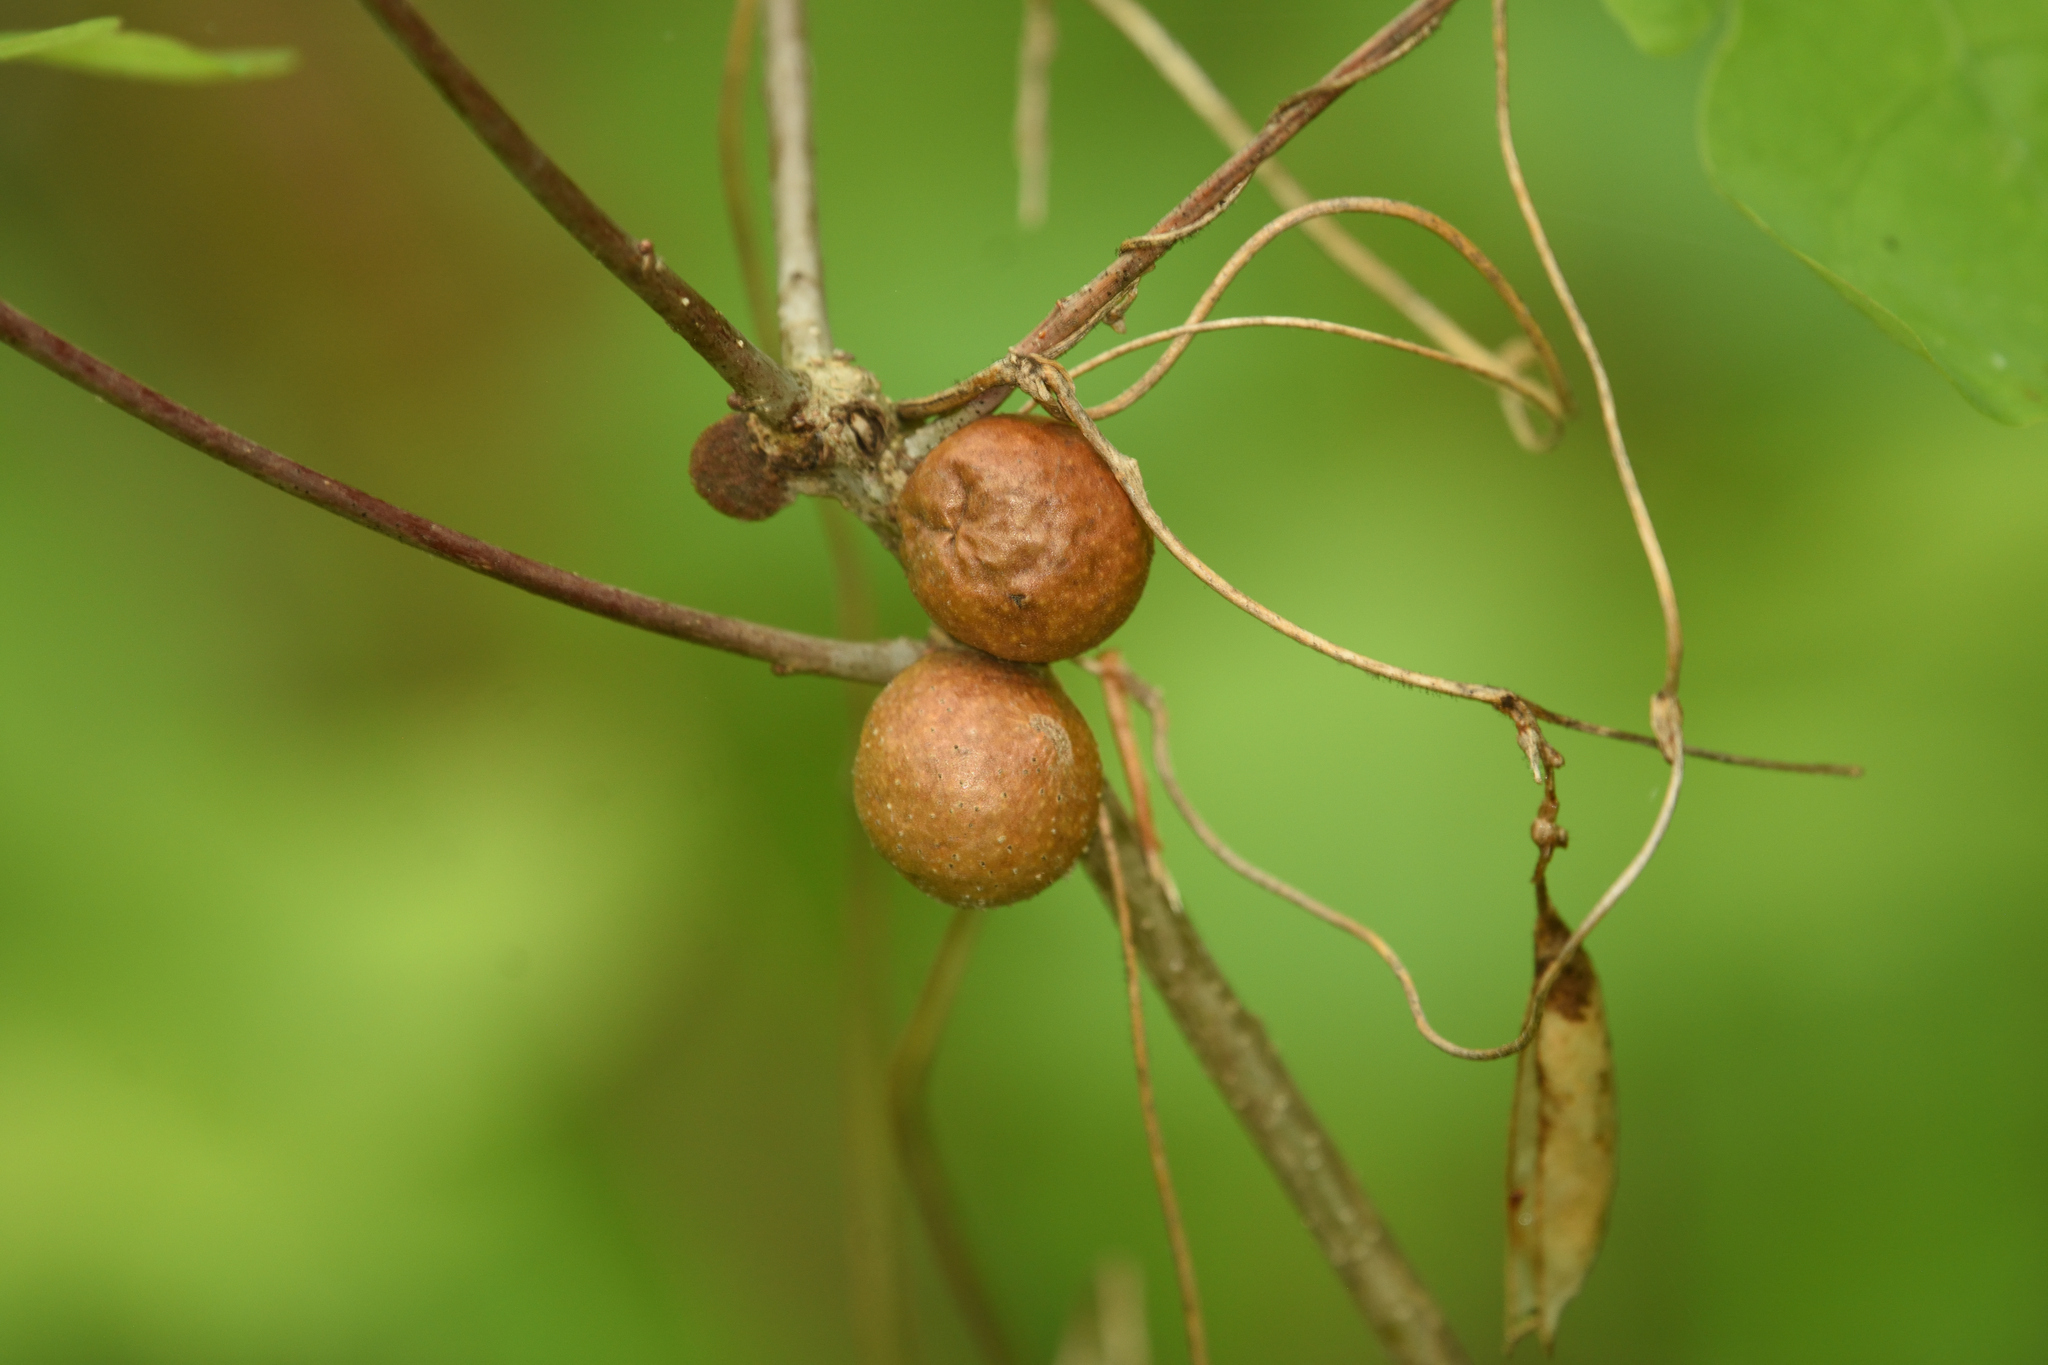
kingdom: Animalia
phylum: Arthropoda
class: Insecta
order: Hymenoptera
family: Cynipidae
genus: Disholcaspis
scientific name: Disholcaspis quercusglobulus
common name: Round bullet gall wasp
